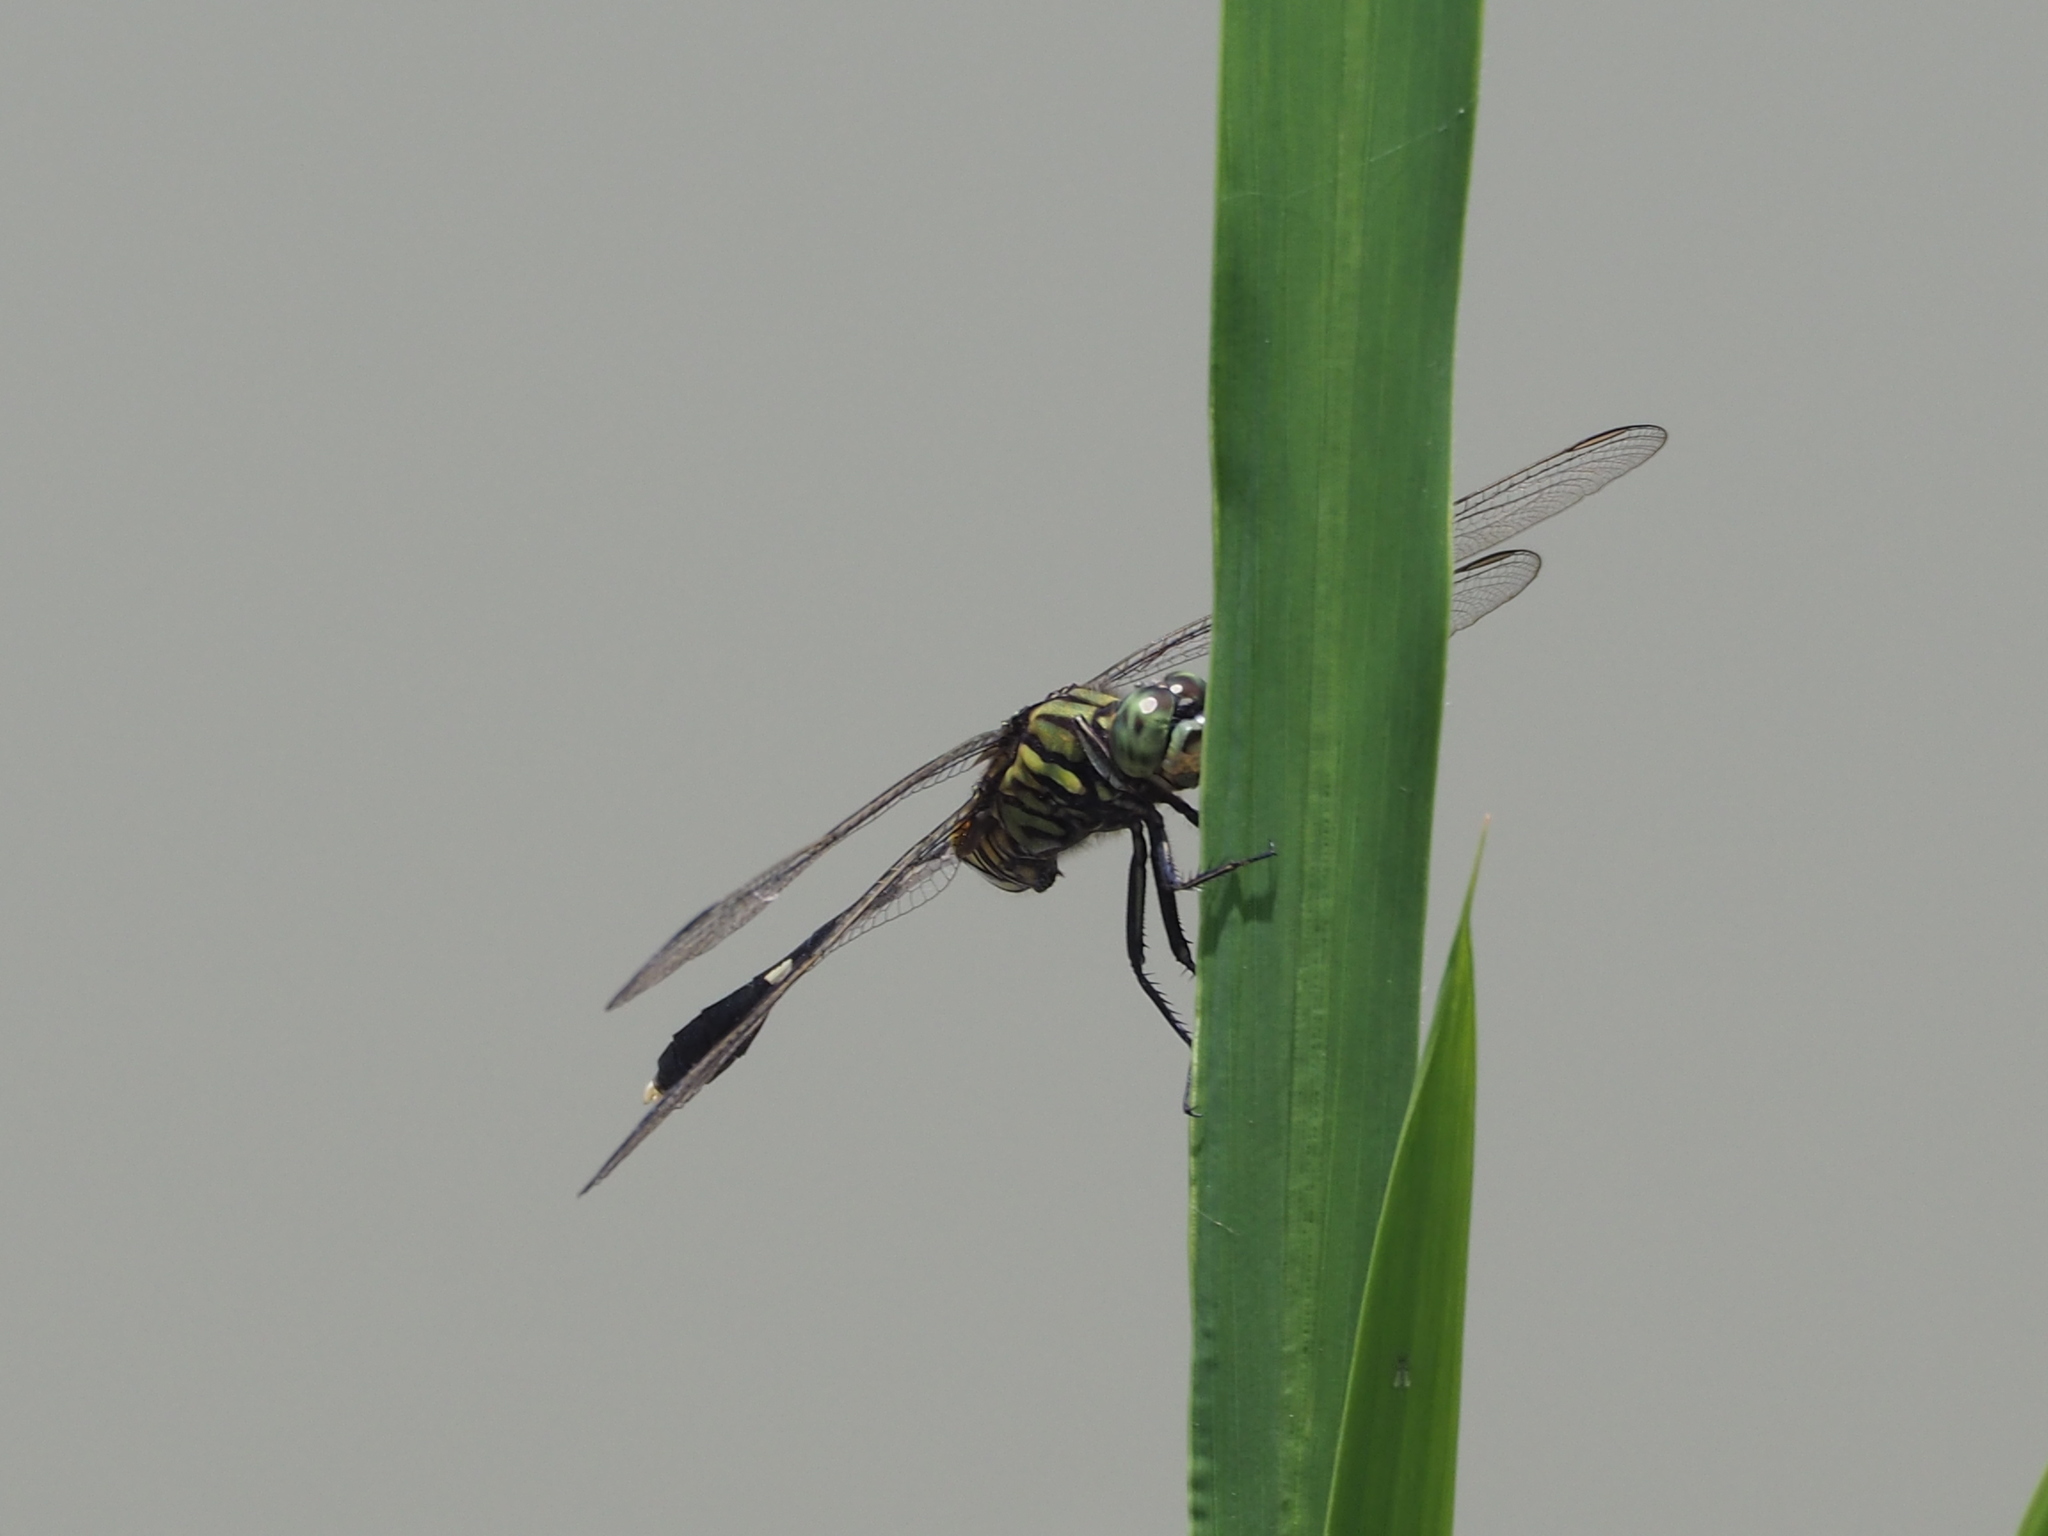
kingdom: Animalia
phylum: Arthropoda
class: Insecta
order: Odonata
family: Libellulidae
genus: Orthetrum
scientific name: Orthetrum sabina
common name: Slender skimmer
